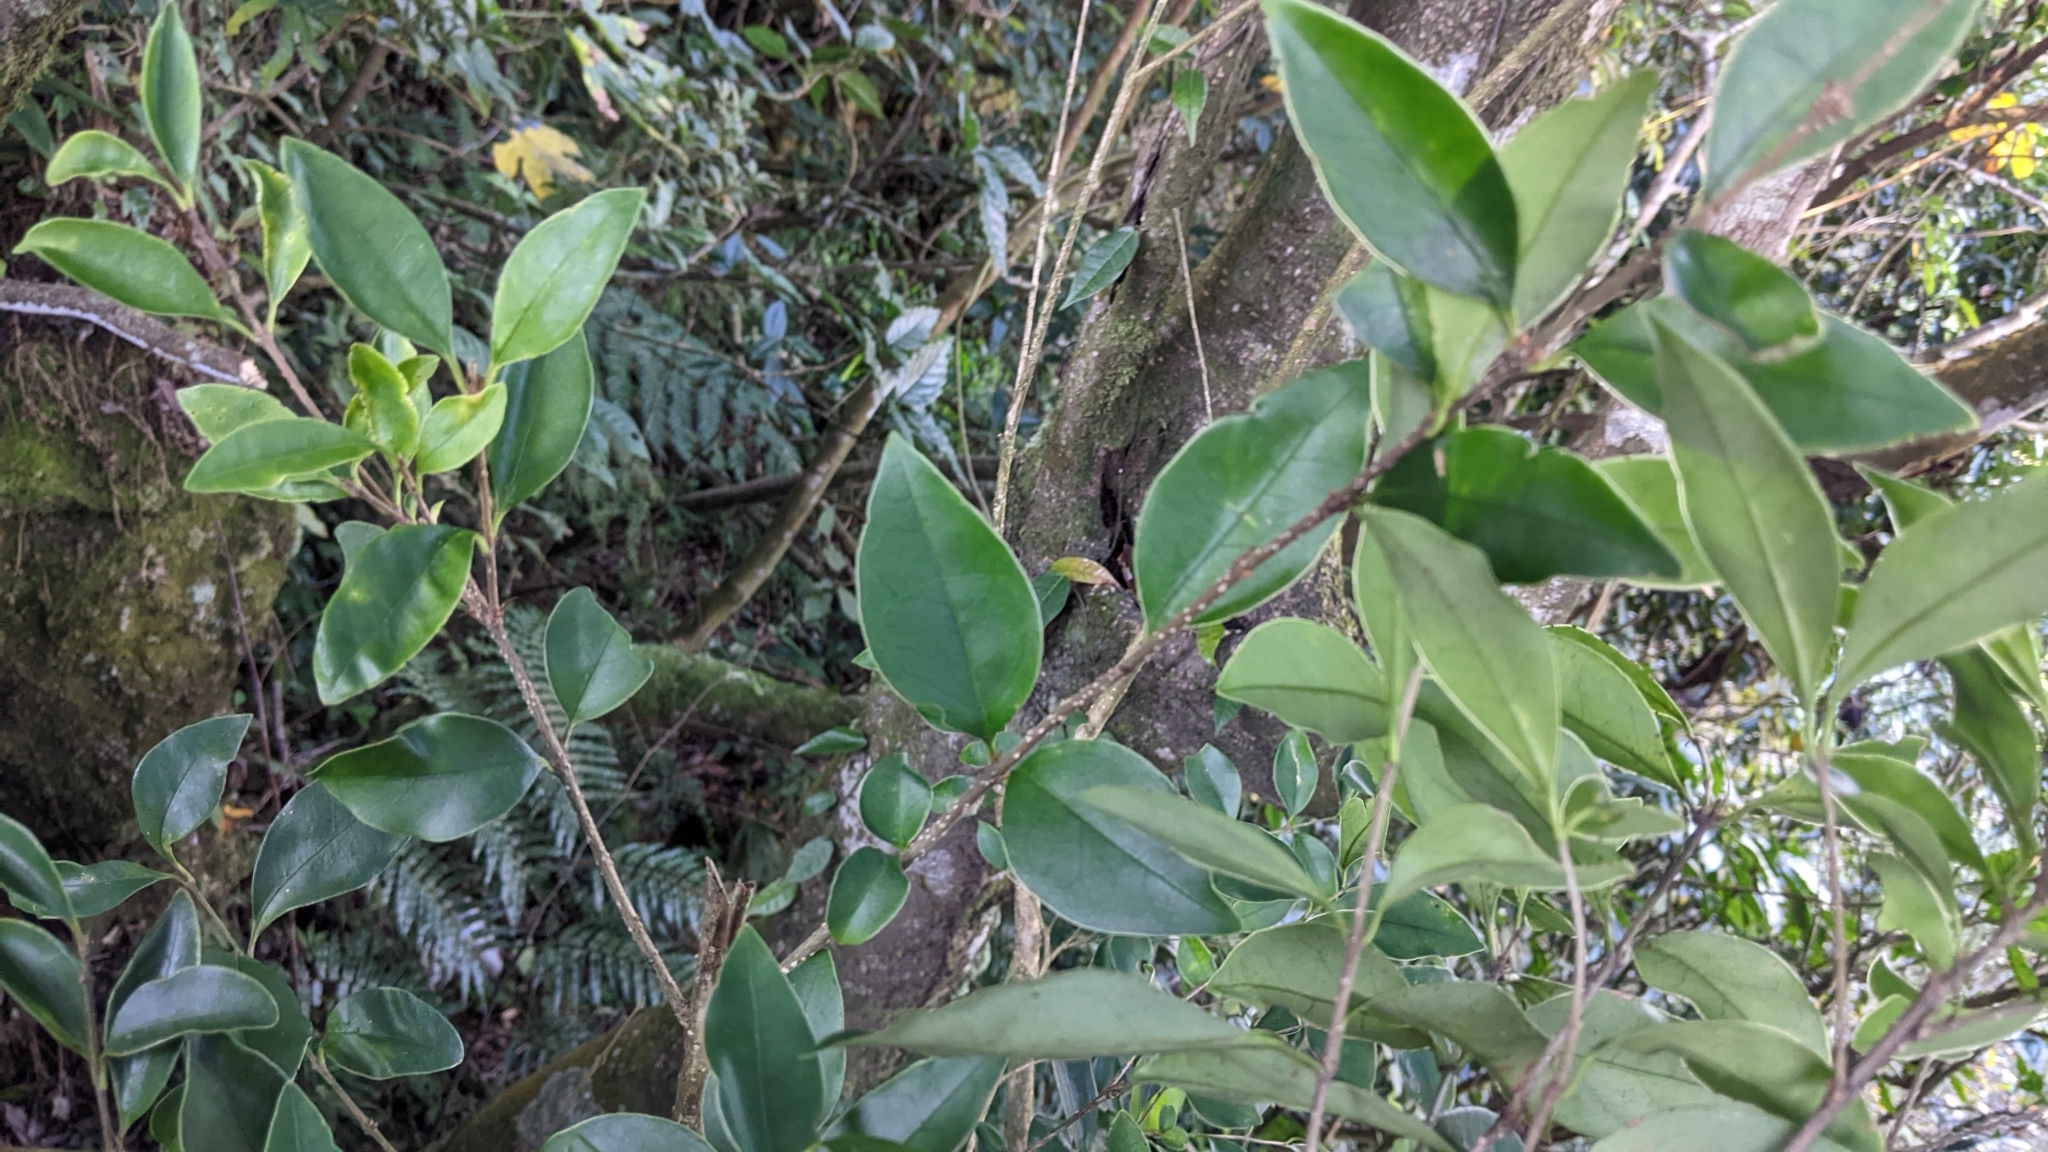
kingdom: Plantae
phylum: Tracheophyta
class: Magnoliopsida
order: Lamiales
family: Oleaceae
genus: Ligustrum
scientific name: Ligustrum liukiuense
